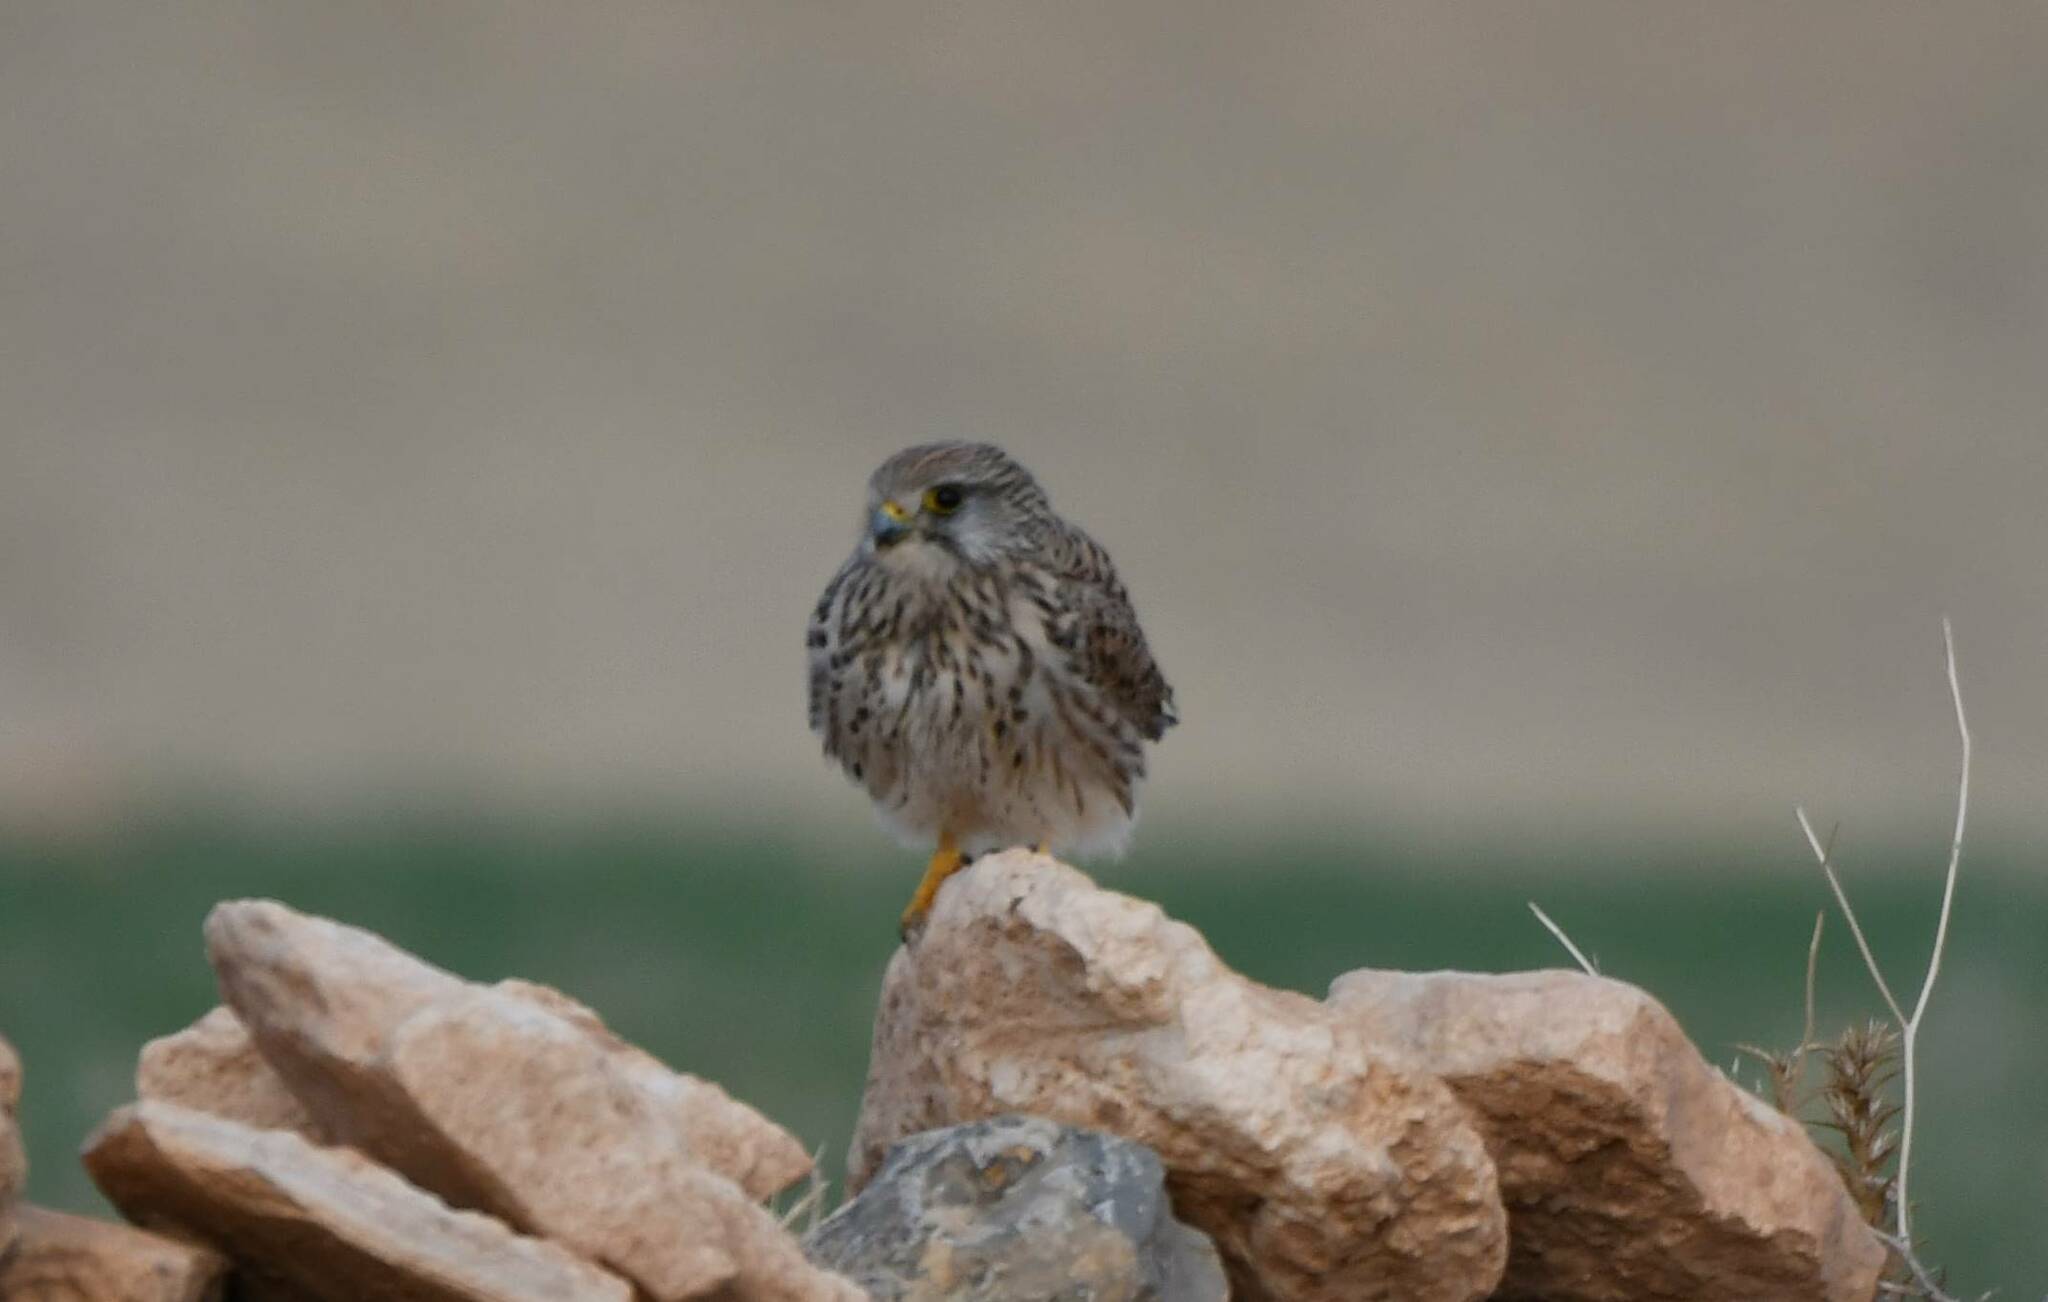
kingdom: Animalia
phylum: Chordata
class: Aves
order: Falconiformes
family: Falconidae
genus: Falco
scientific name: Falco tinnunculus
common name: Common kestrel
